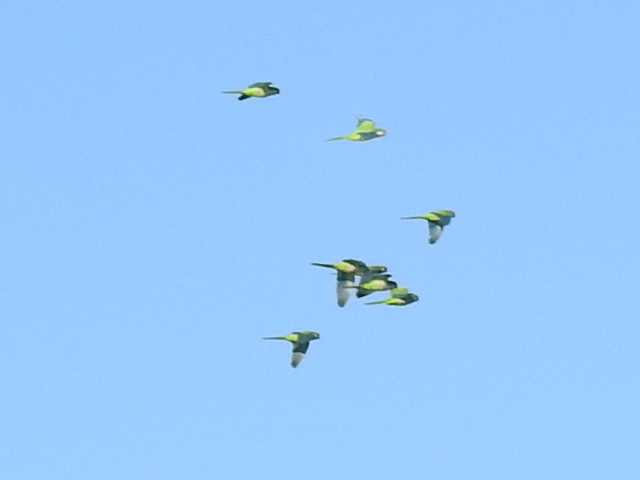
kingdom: Animalia
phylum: Chordata
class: Aves
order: Psittaciformes
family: Psittacidae
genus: Myiopsitta
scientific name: Myiopsitta monachus
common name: Monk parakeet
